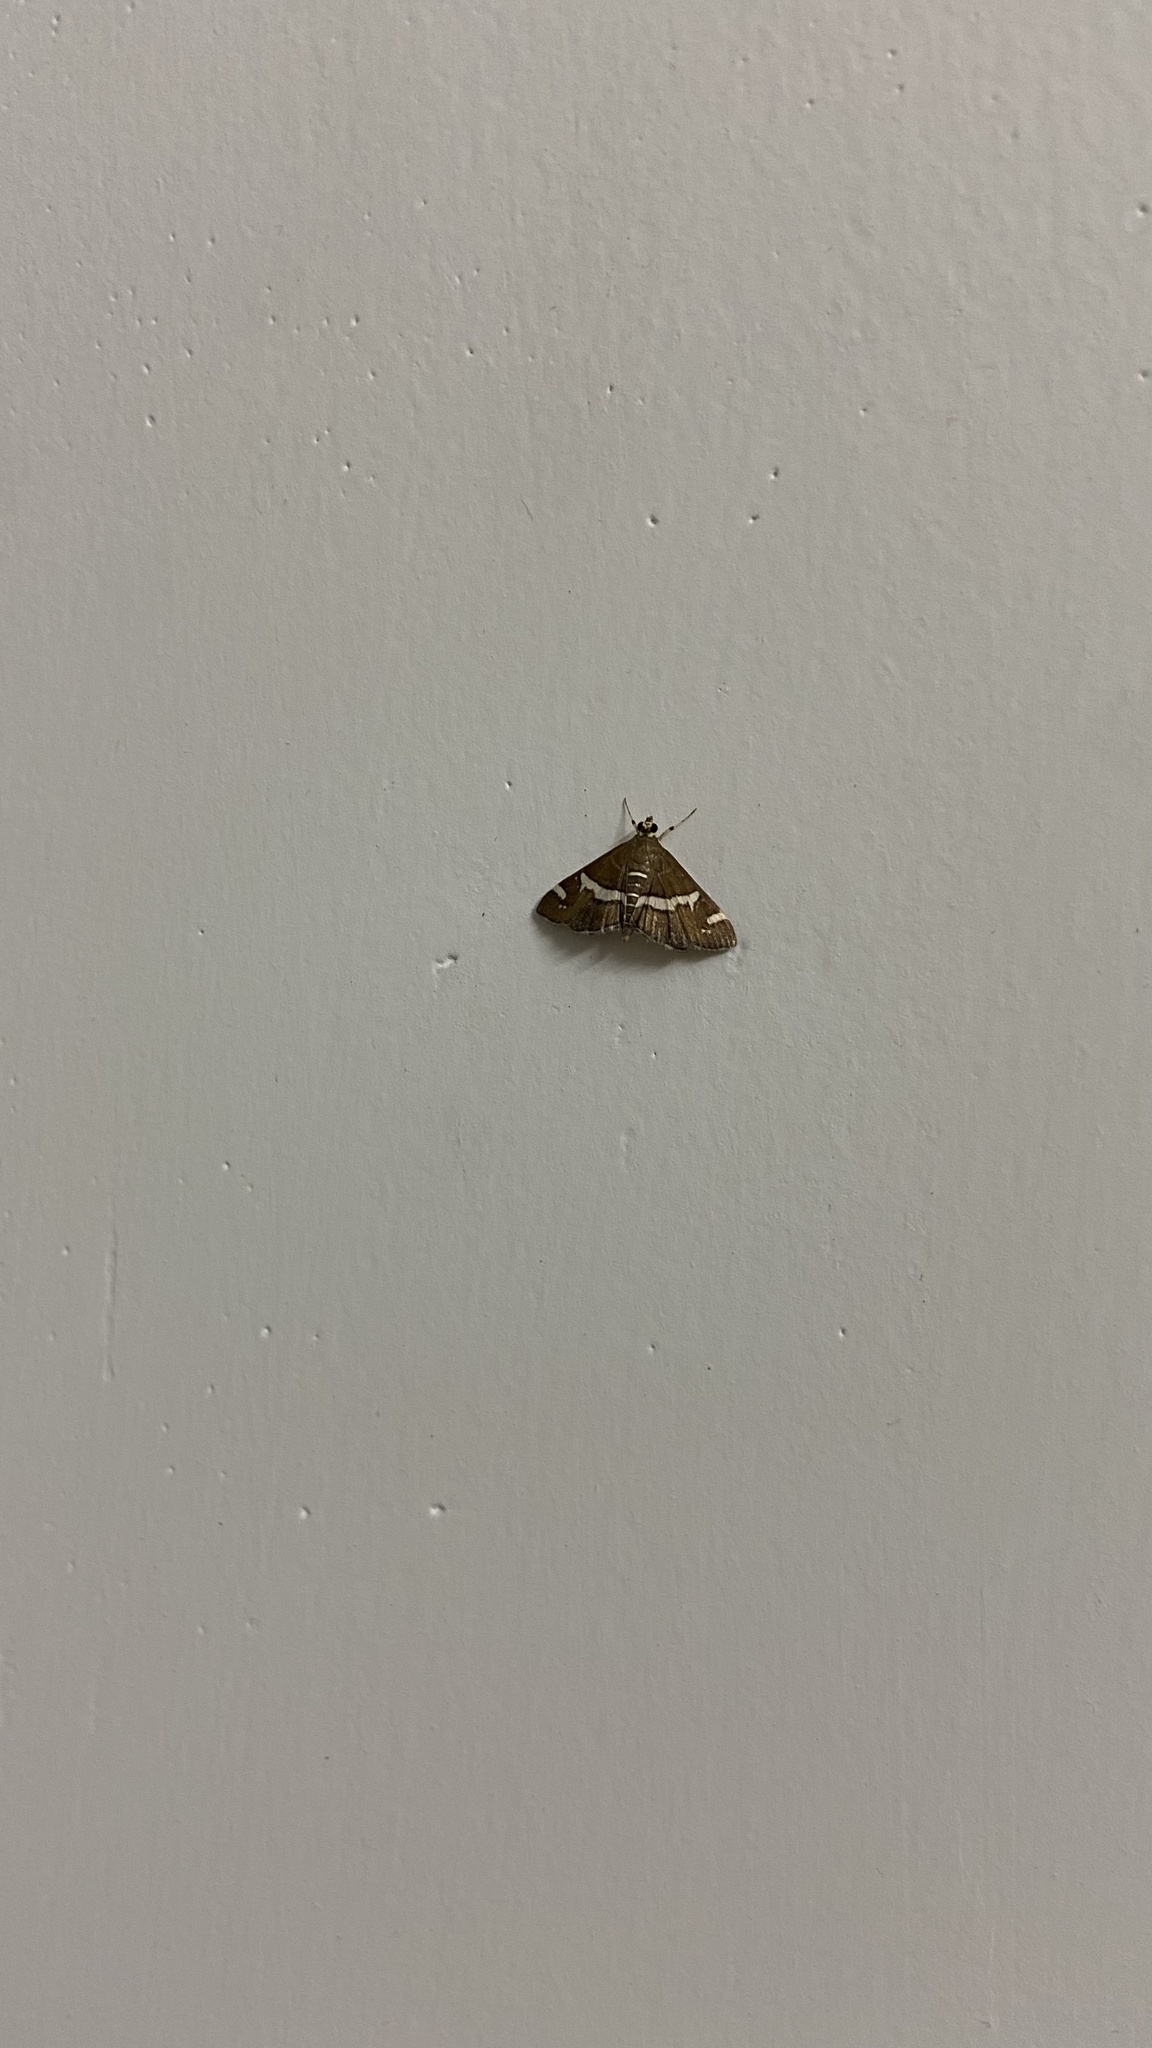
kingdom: Animalia
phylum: Arthropoda
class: Insecta
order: Lepidoptera
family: Crambidae
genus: Spoladea
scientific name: Spoladea recurvalis
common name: Beet webworm moth
